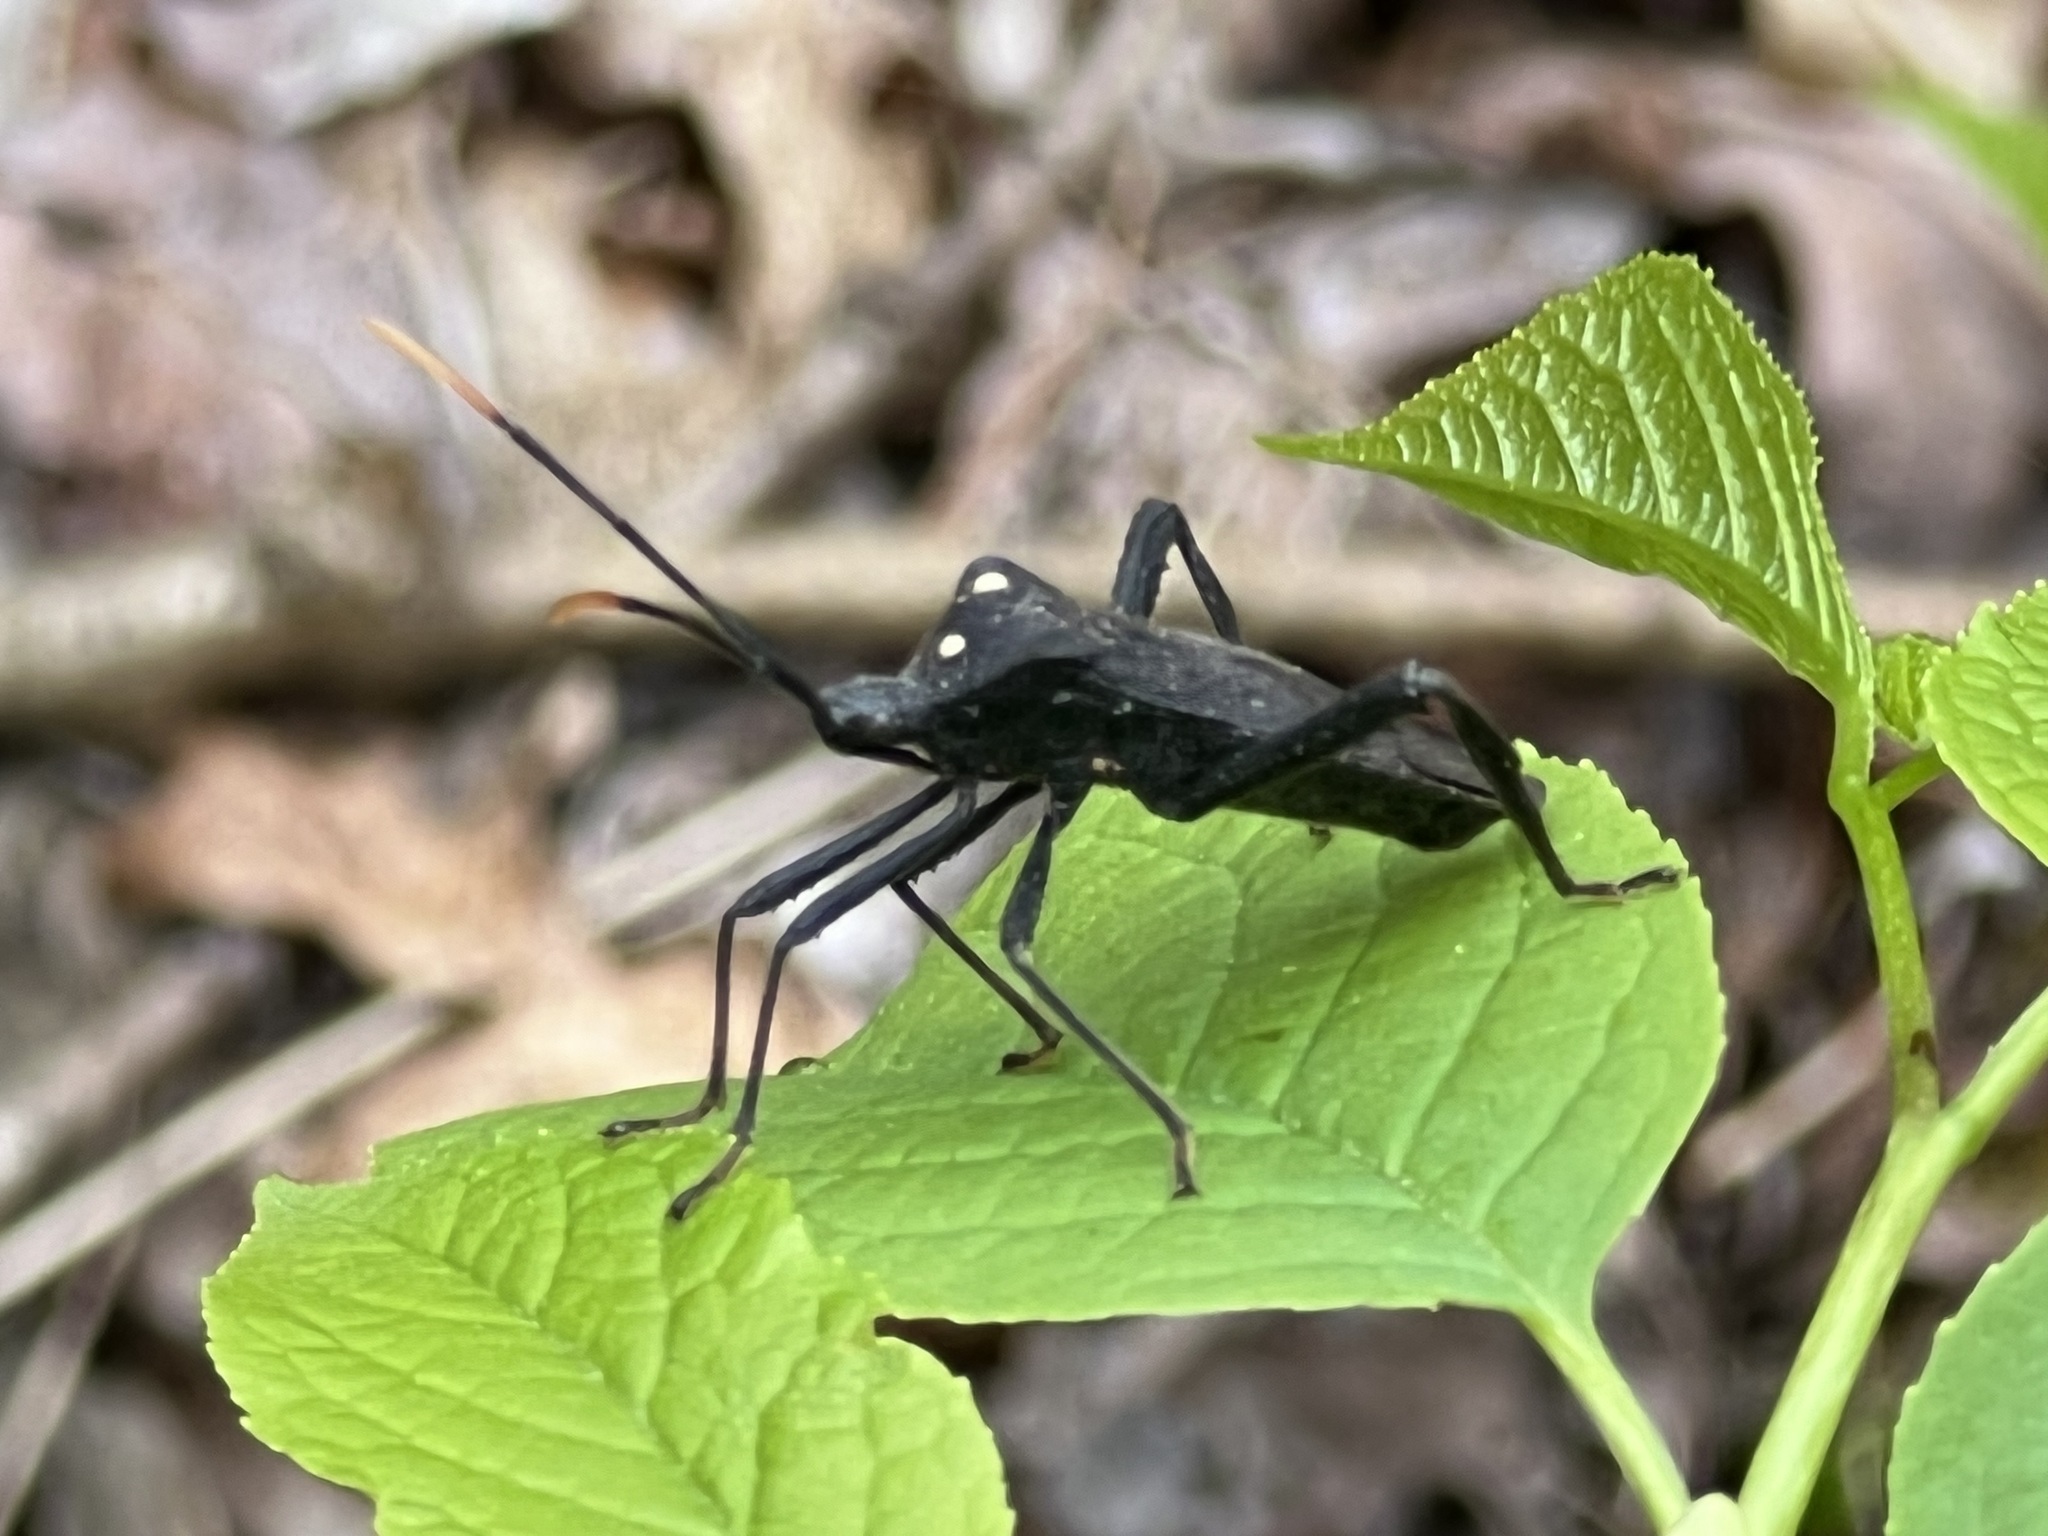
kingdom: Animalia
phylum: Arthropoda
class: Insecta
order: Hemiptera
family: Coreidae
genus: Acanthocephala
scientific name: Acanthocephala terminalis
